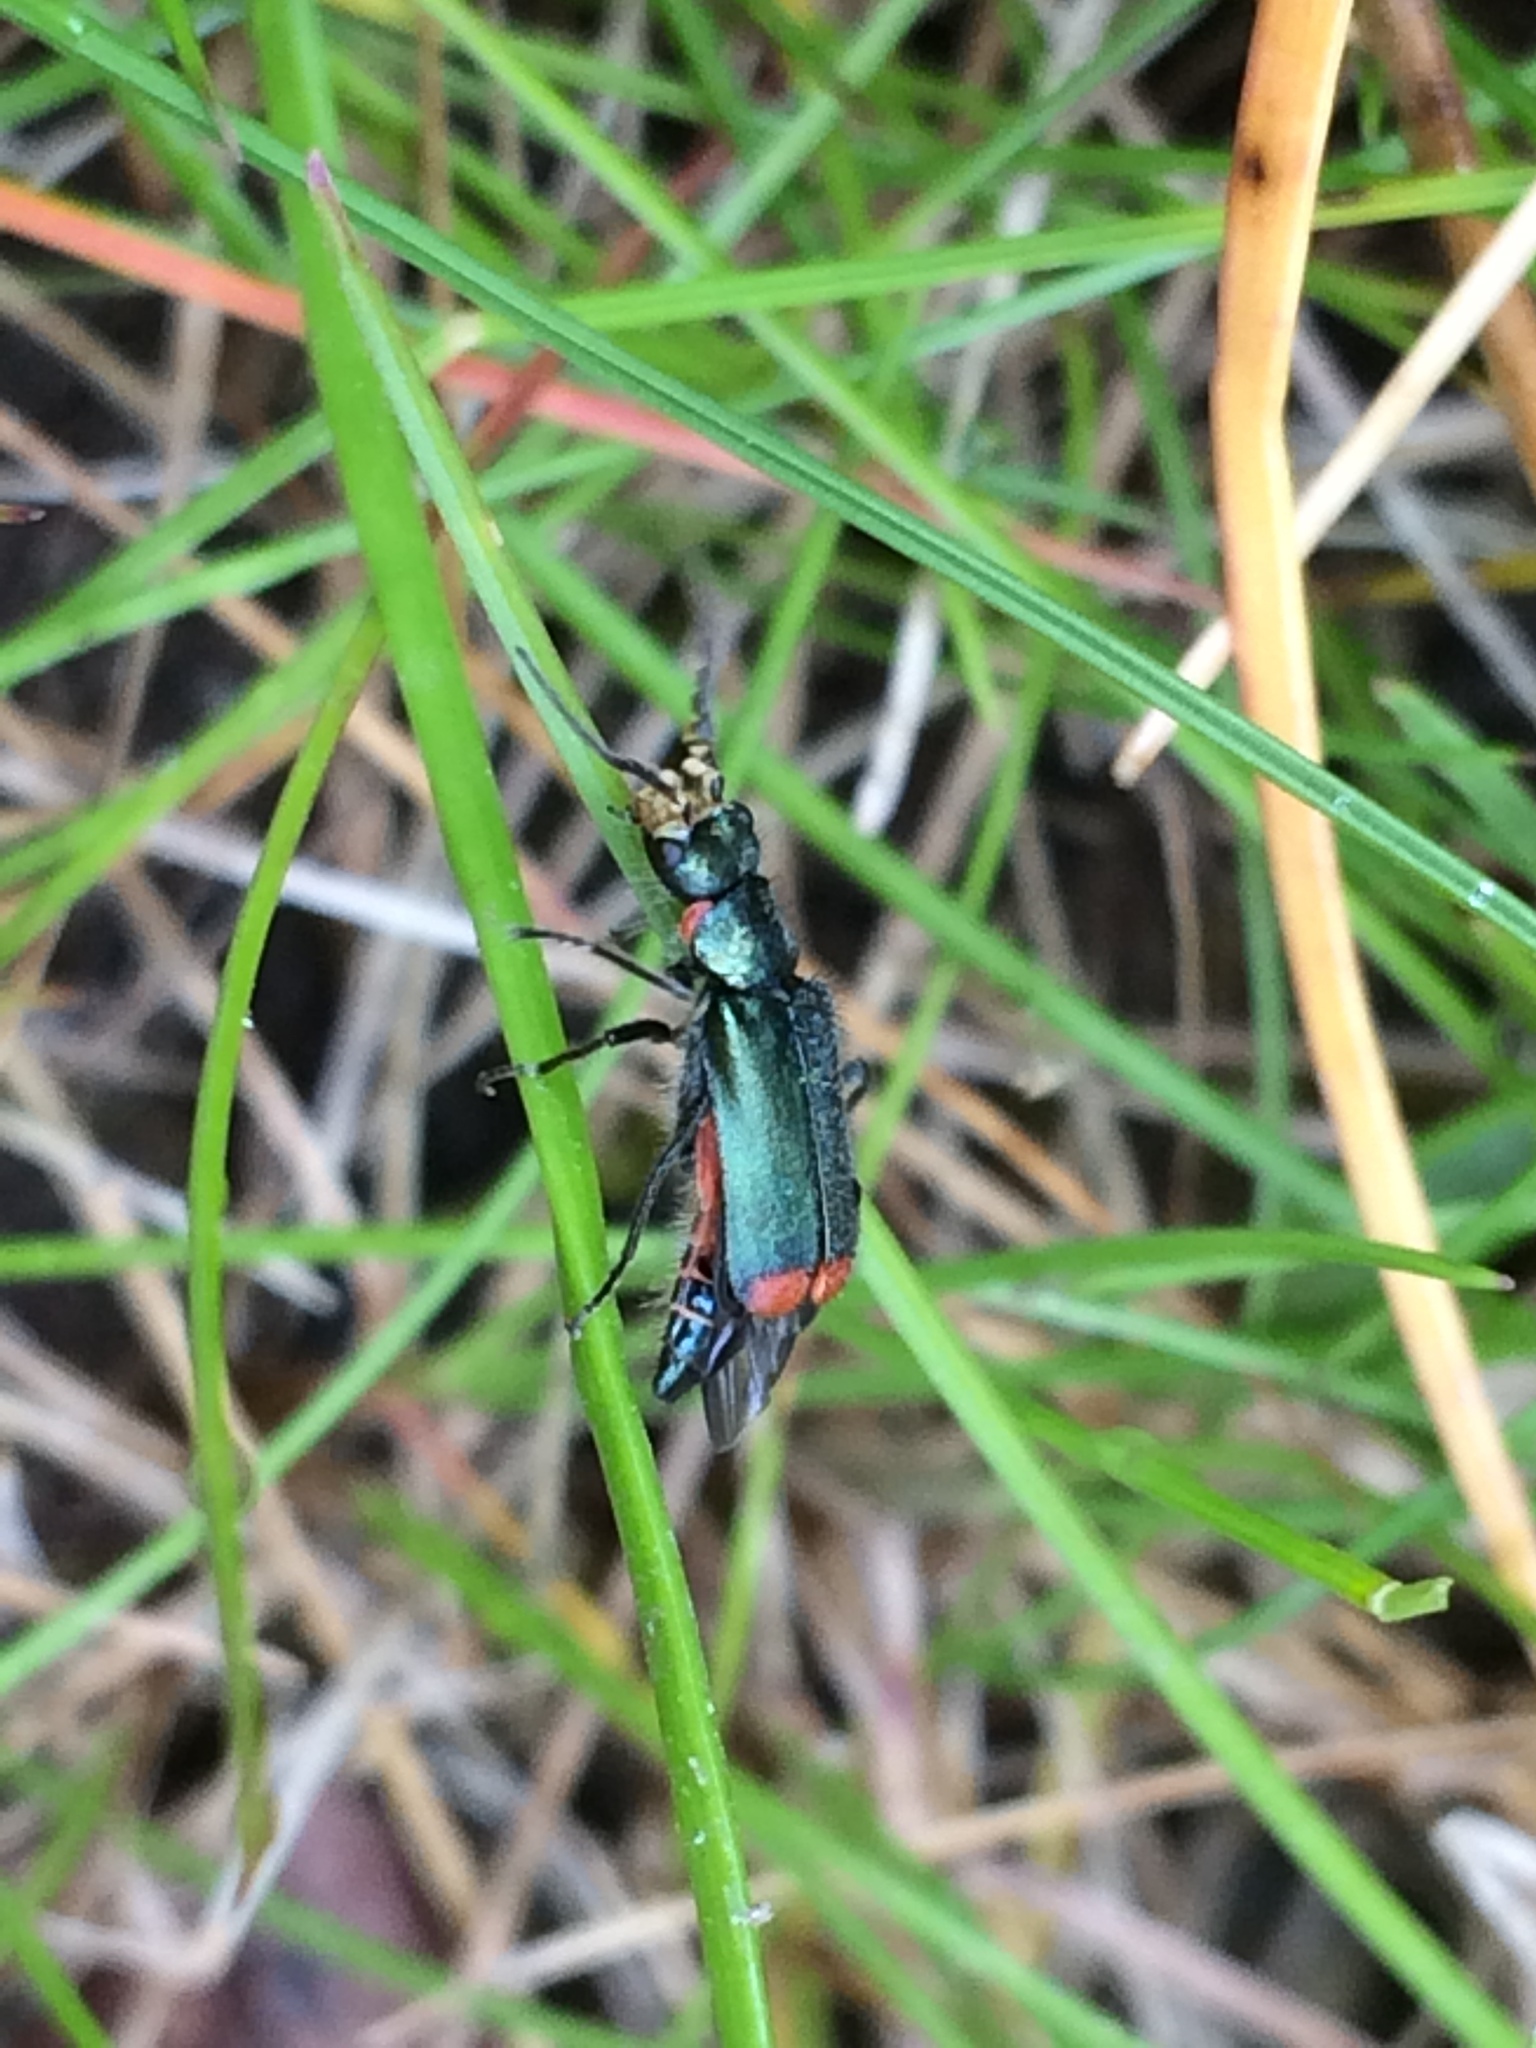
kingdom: Animalia
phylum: Arthropoda
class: Insecta
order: Coleoptera
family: Melyridae
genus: Malachius
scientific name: Malachius bipustulatus
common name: Malachite beetle
